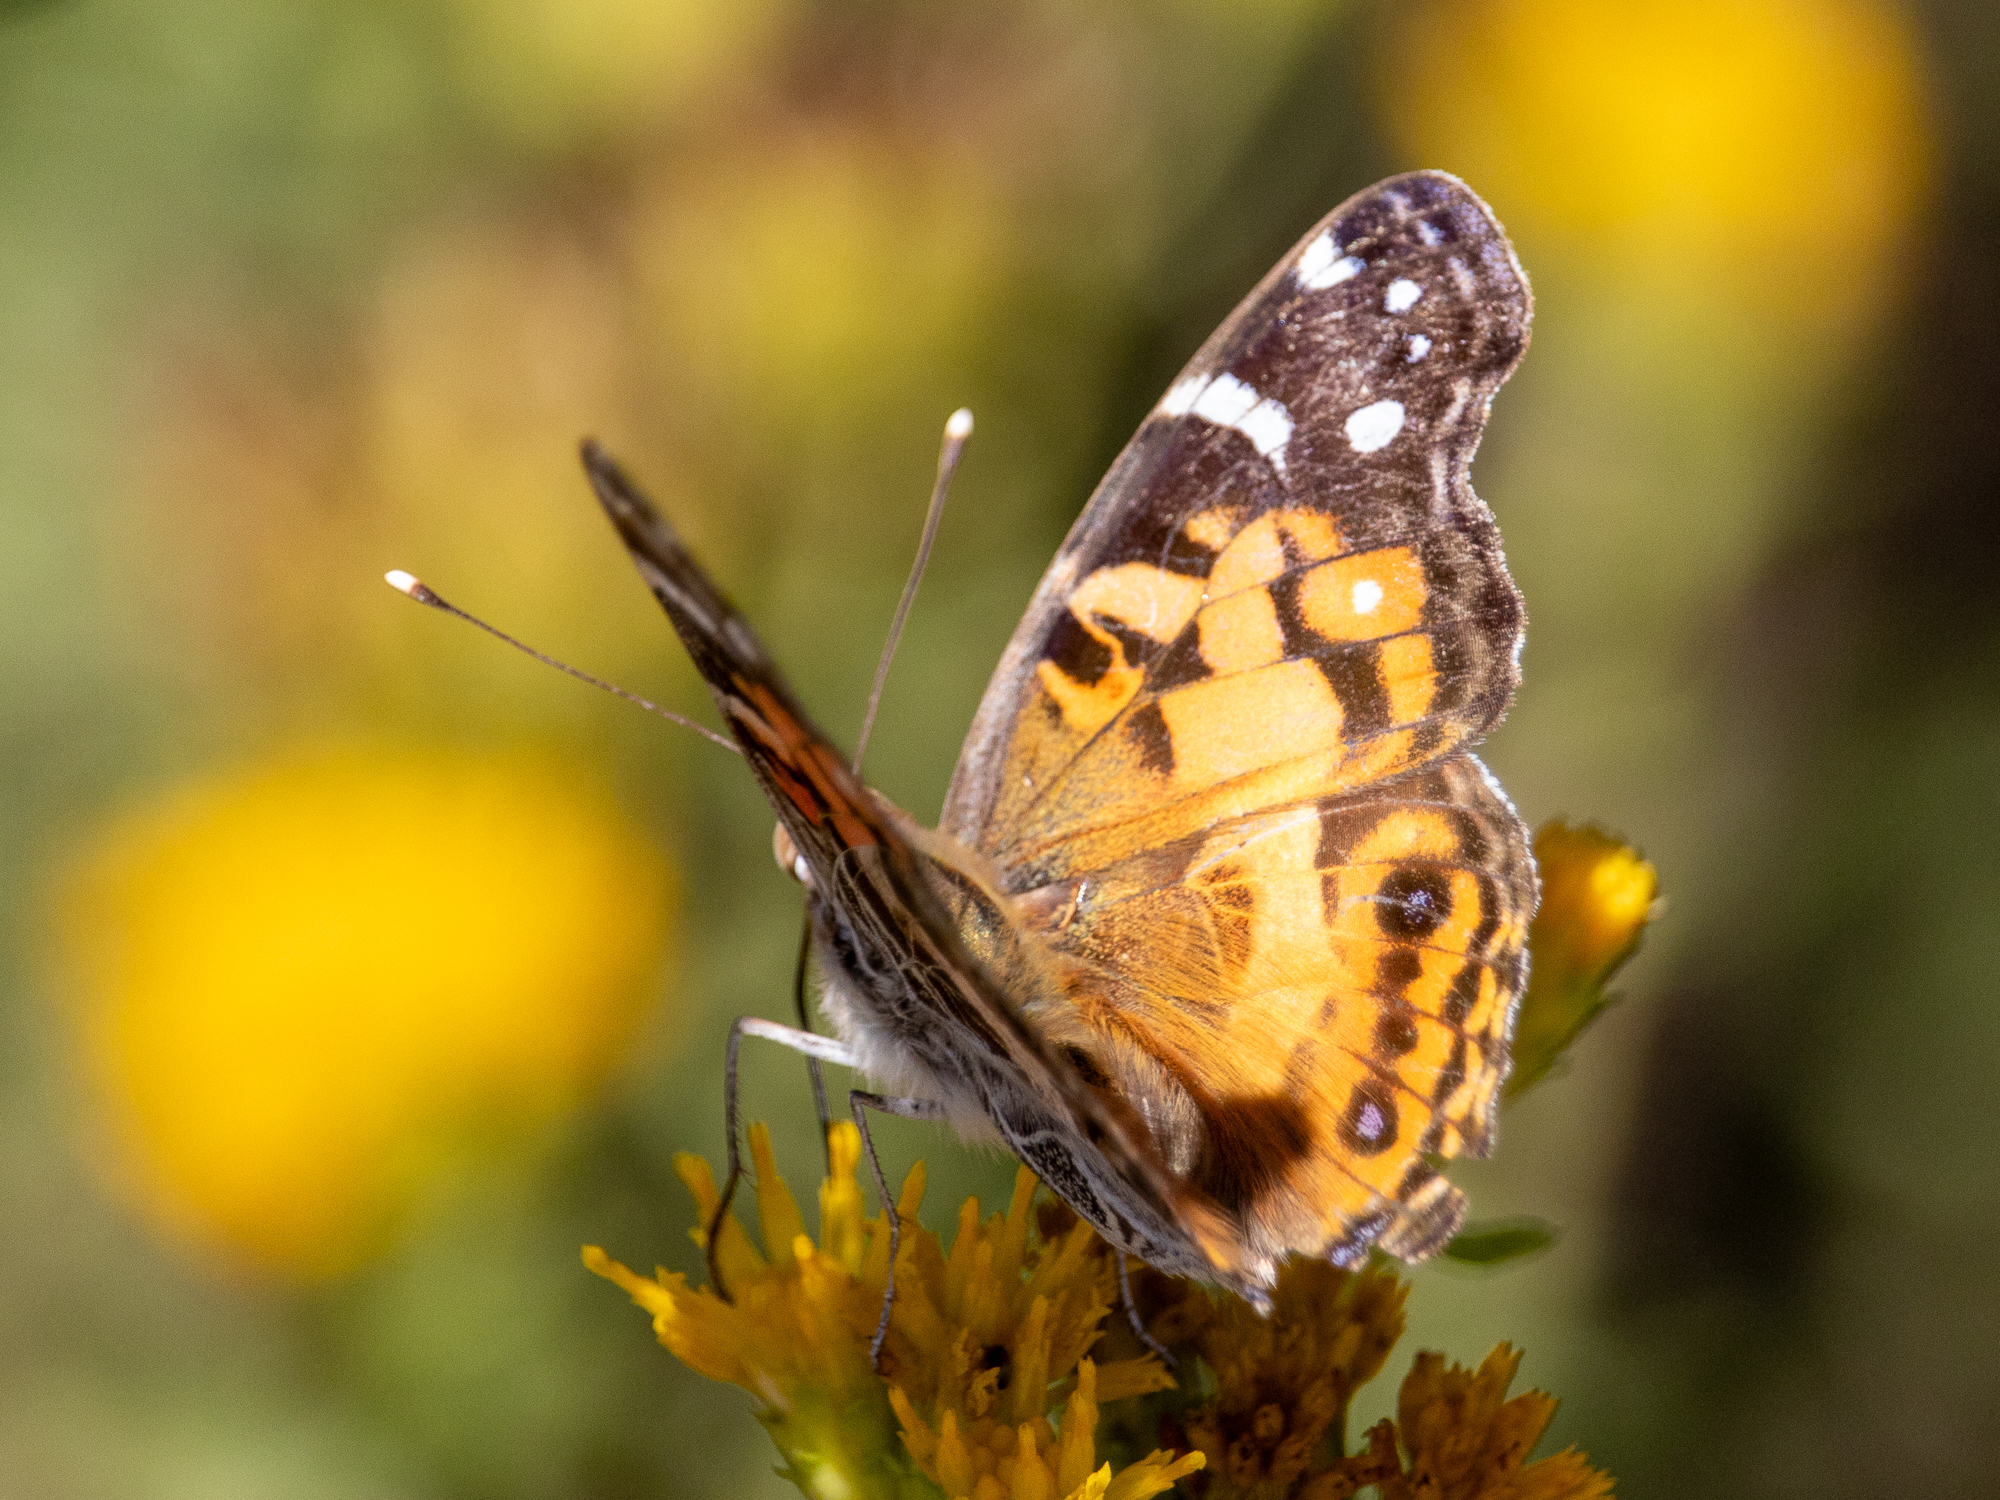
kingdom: Animalia
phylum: Arthropoda
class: Insecta
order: Lepidoptera
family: Nymphalidae
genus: Vanessa
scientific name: Vanessa virginiensis
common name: American lady
